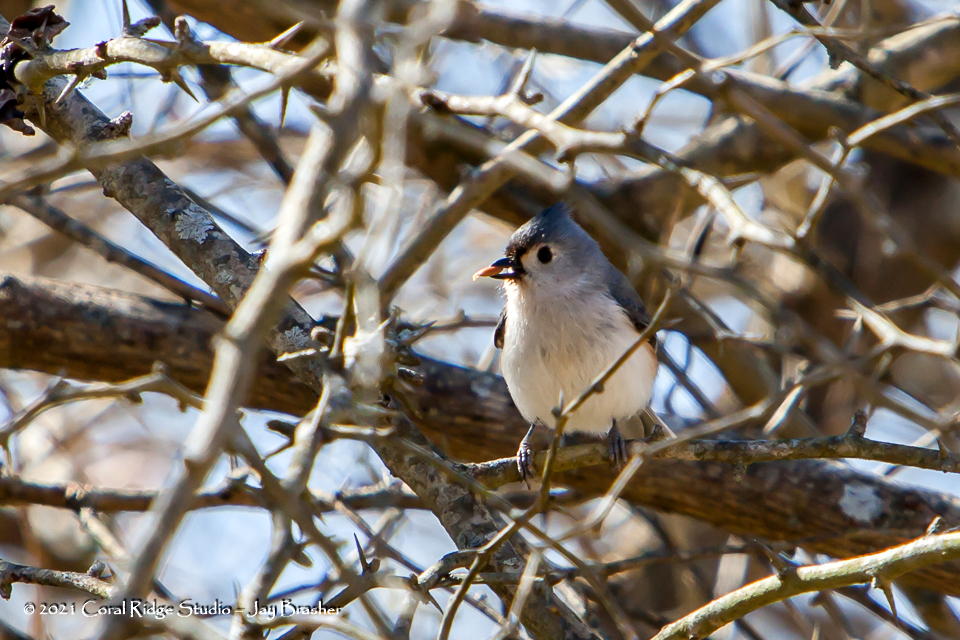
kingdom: Animalia
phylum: Chordata
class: Aves
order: Passeriformes
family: Paridae
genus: Baeolophus
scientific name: Baeolophus bicolor
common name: Tufted titmouse
